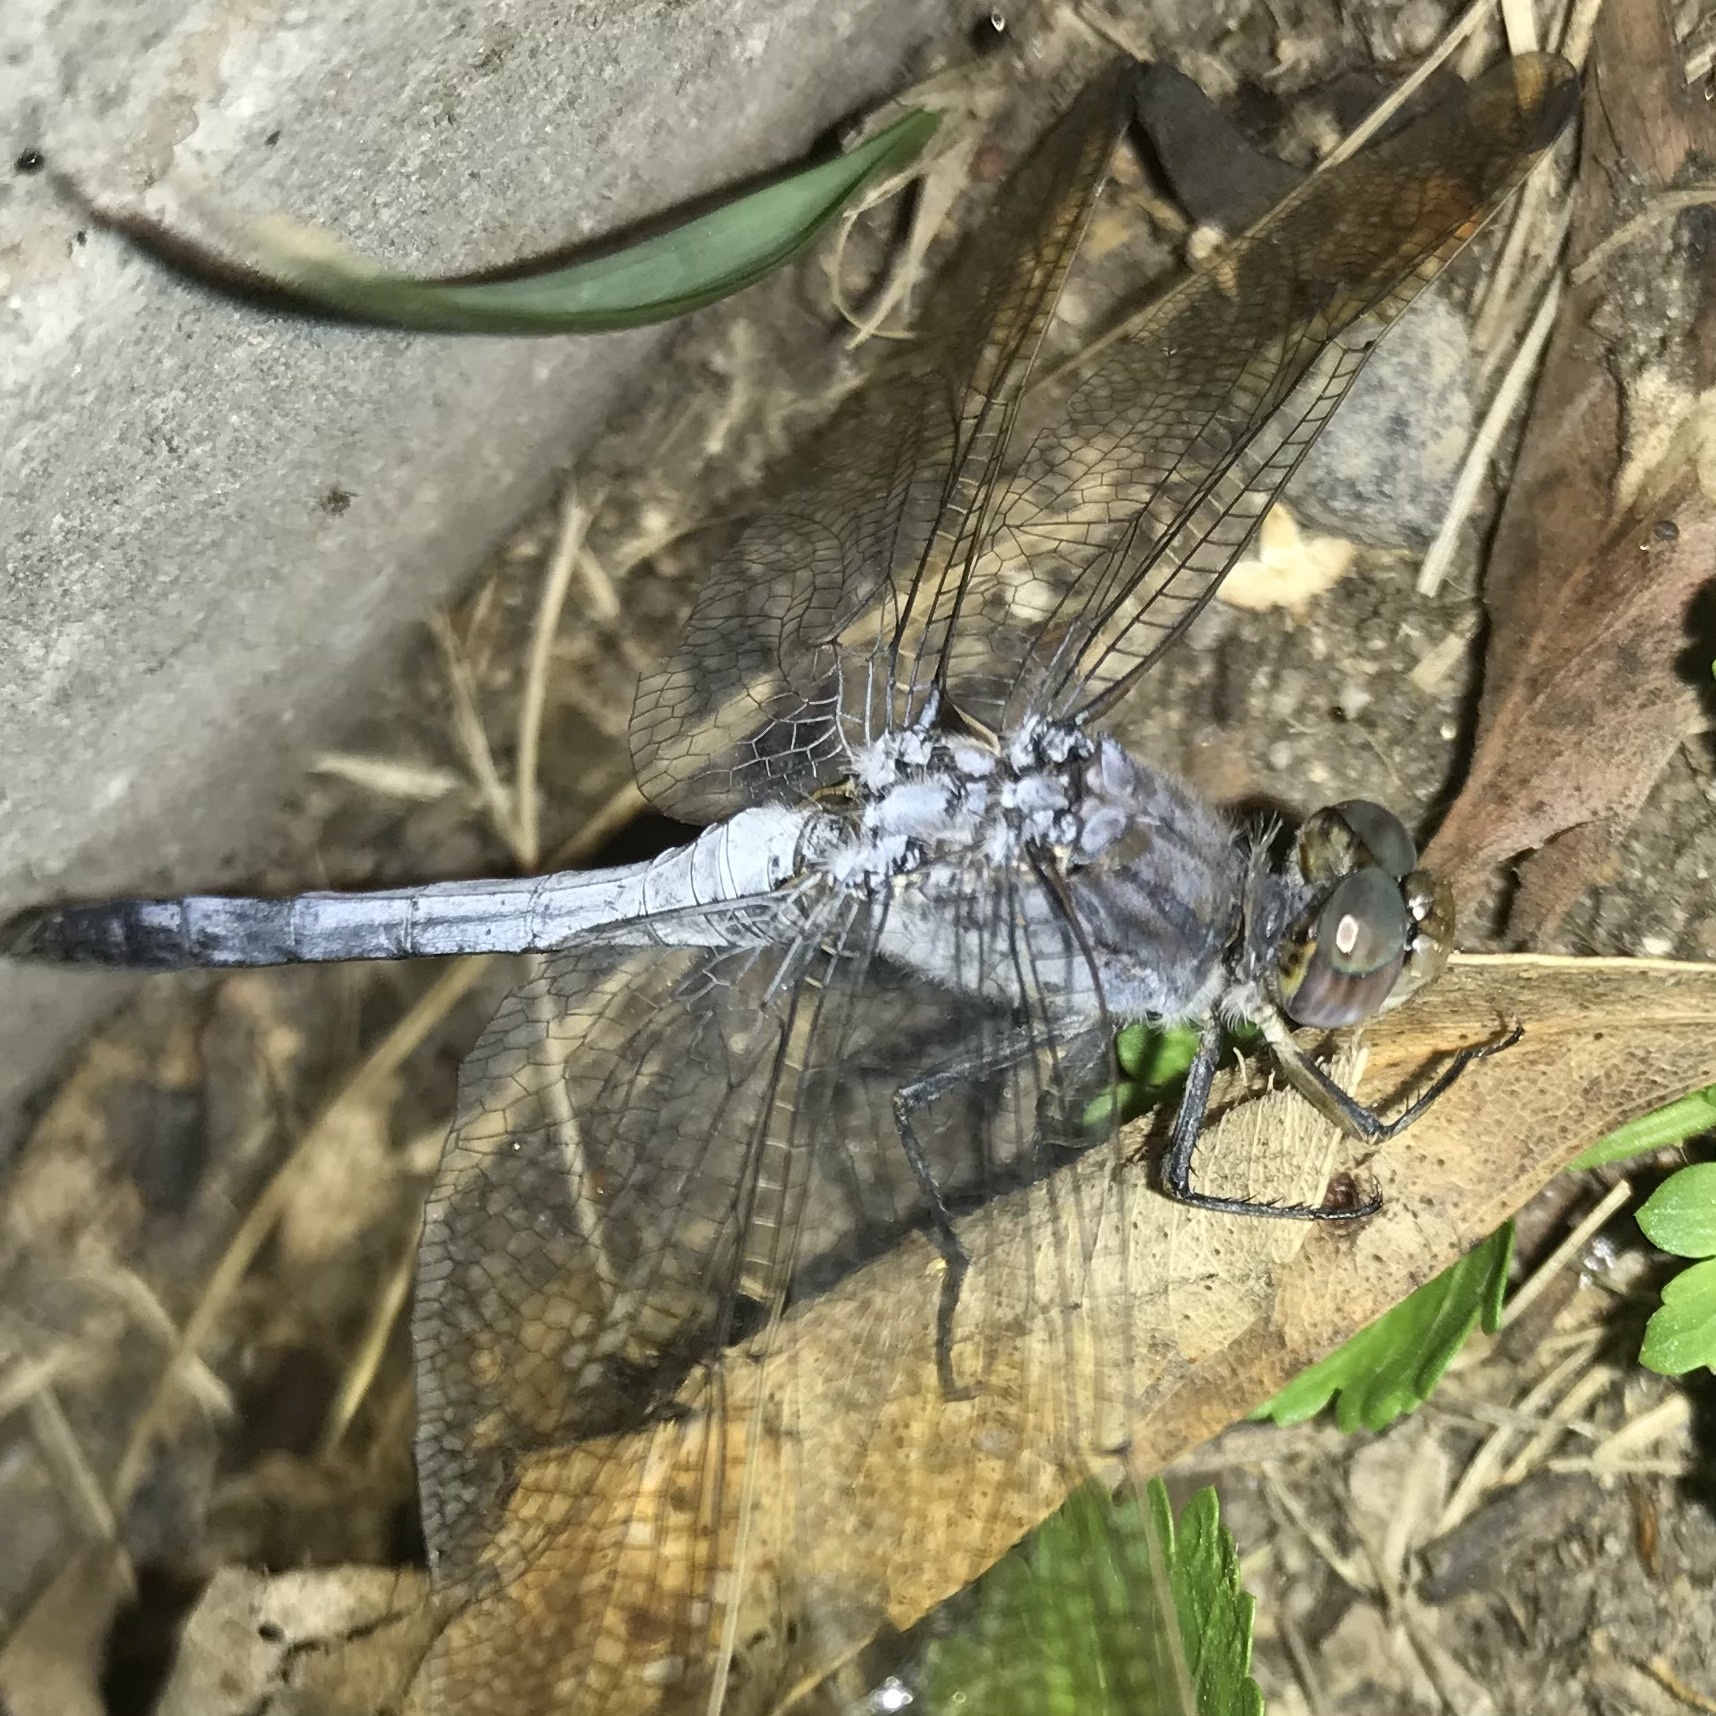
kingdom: Animalia
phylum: Arthropoda
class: Insecta
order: Odonata
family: Libellulidae
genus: Orthetrum
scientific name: Orthetrum caledonicum
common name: Blue skimmer
